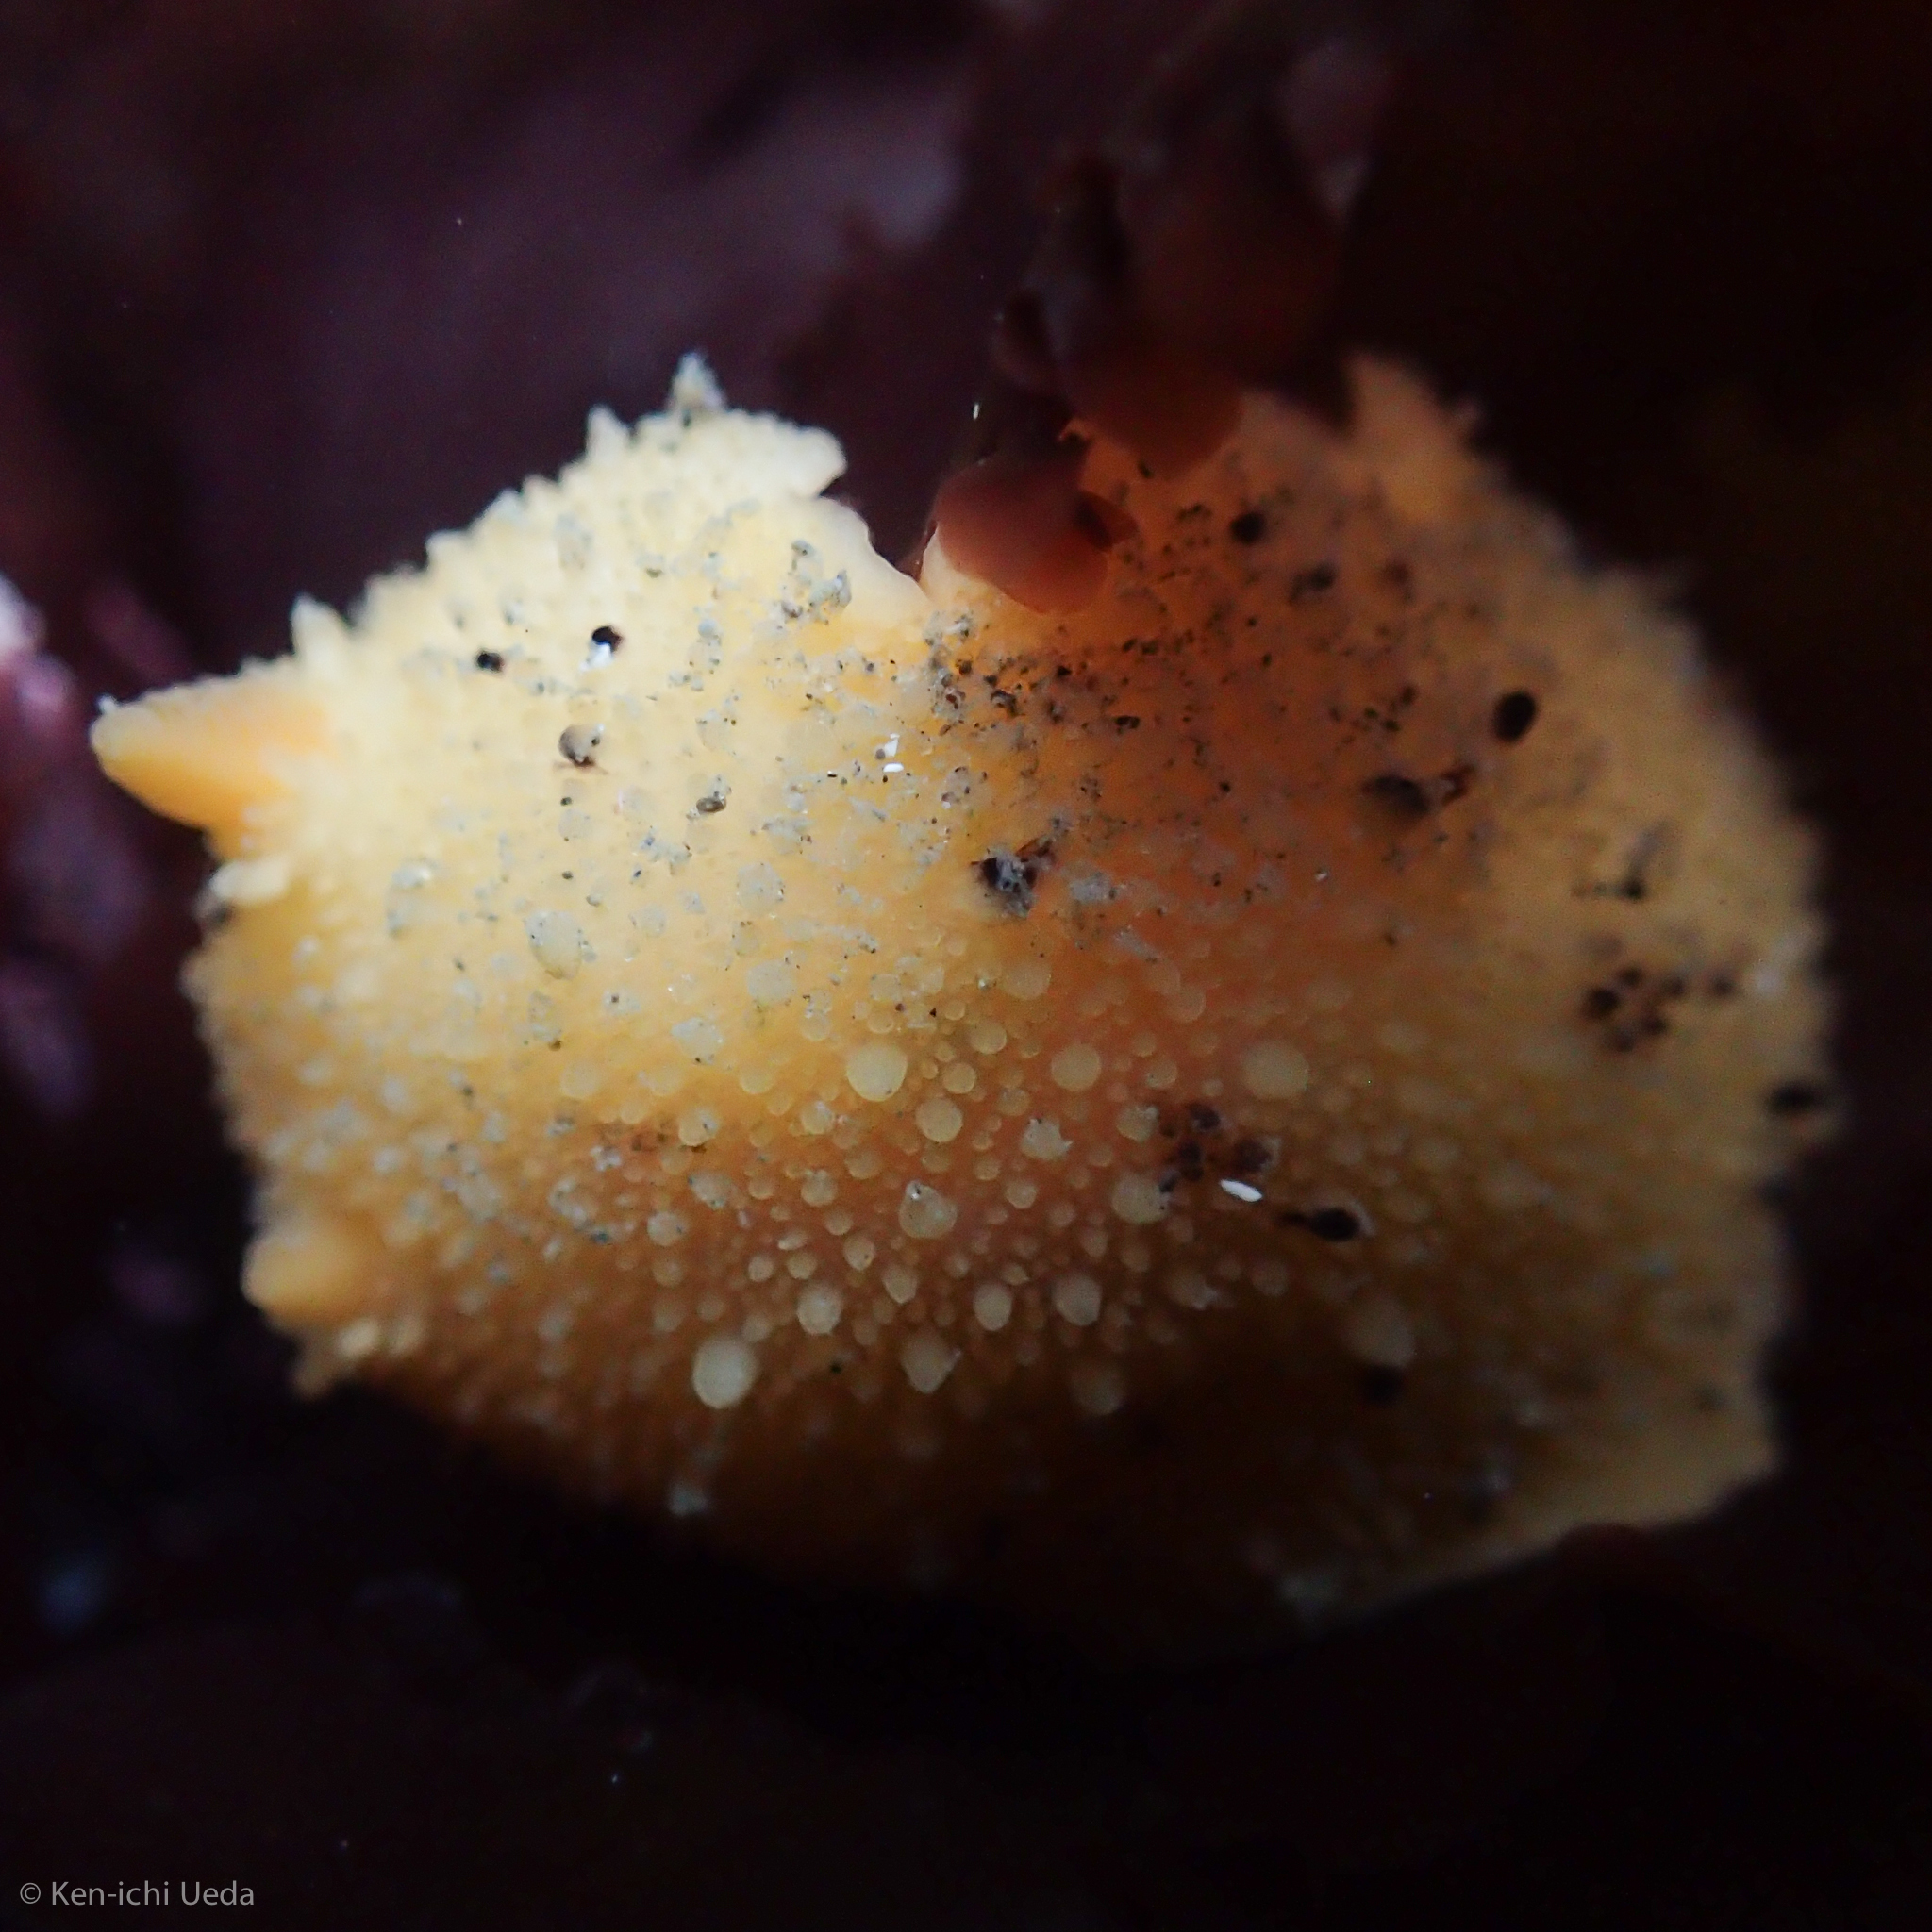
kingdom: Animalia
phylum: Mollusca
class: Gastropoda
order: Nudibranchia
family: Dorididae
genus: Doris
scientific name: Doris montereyensis
